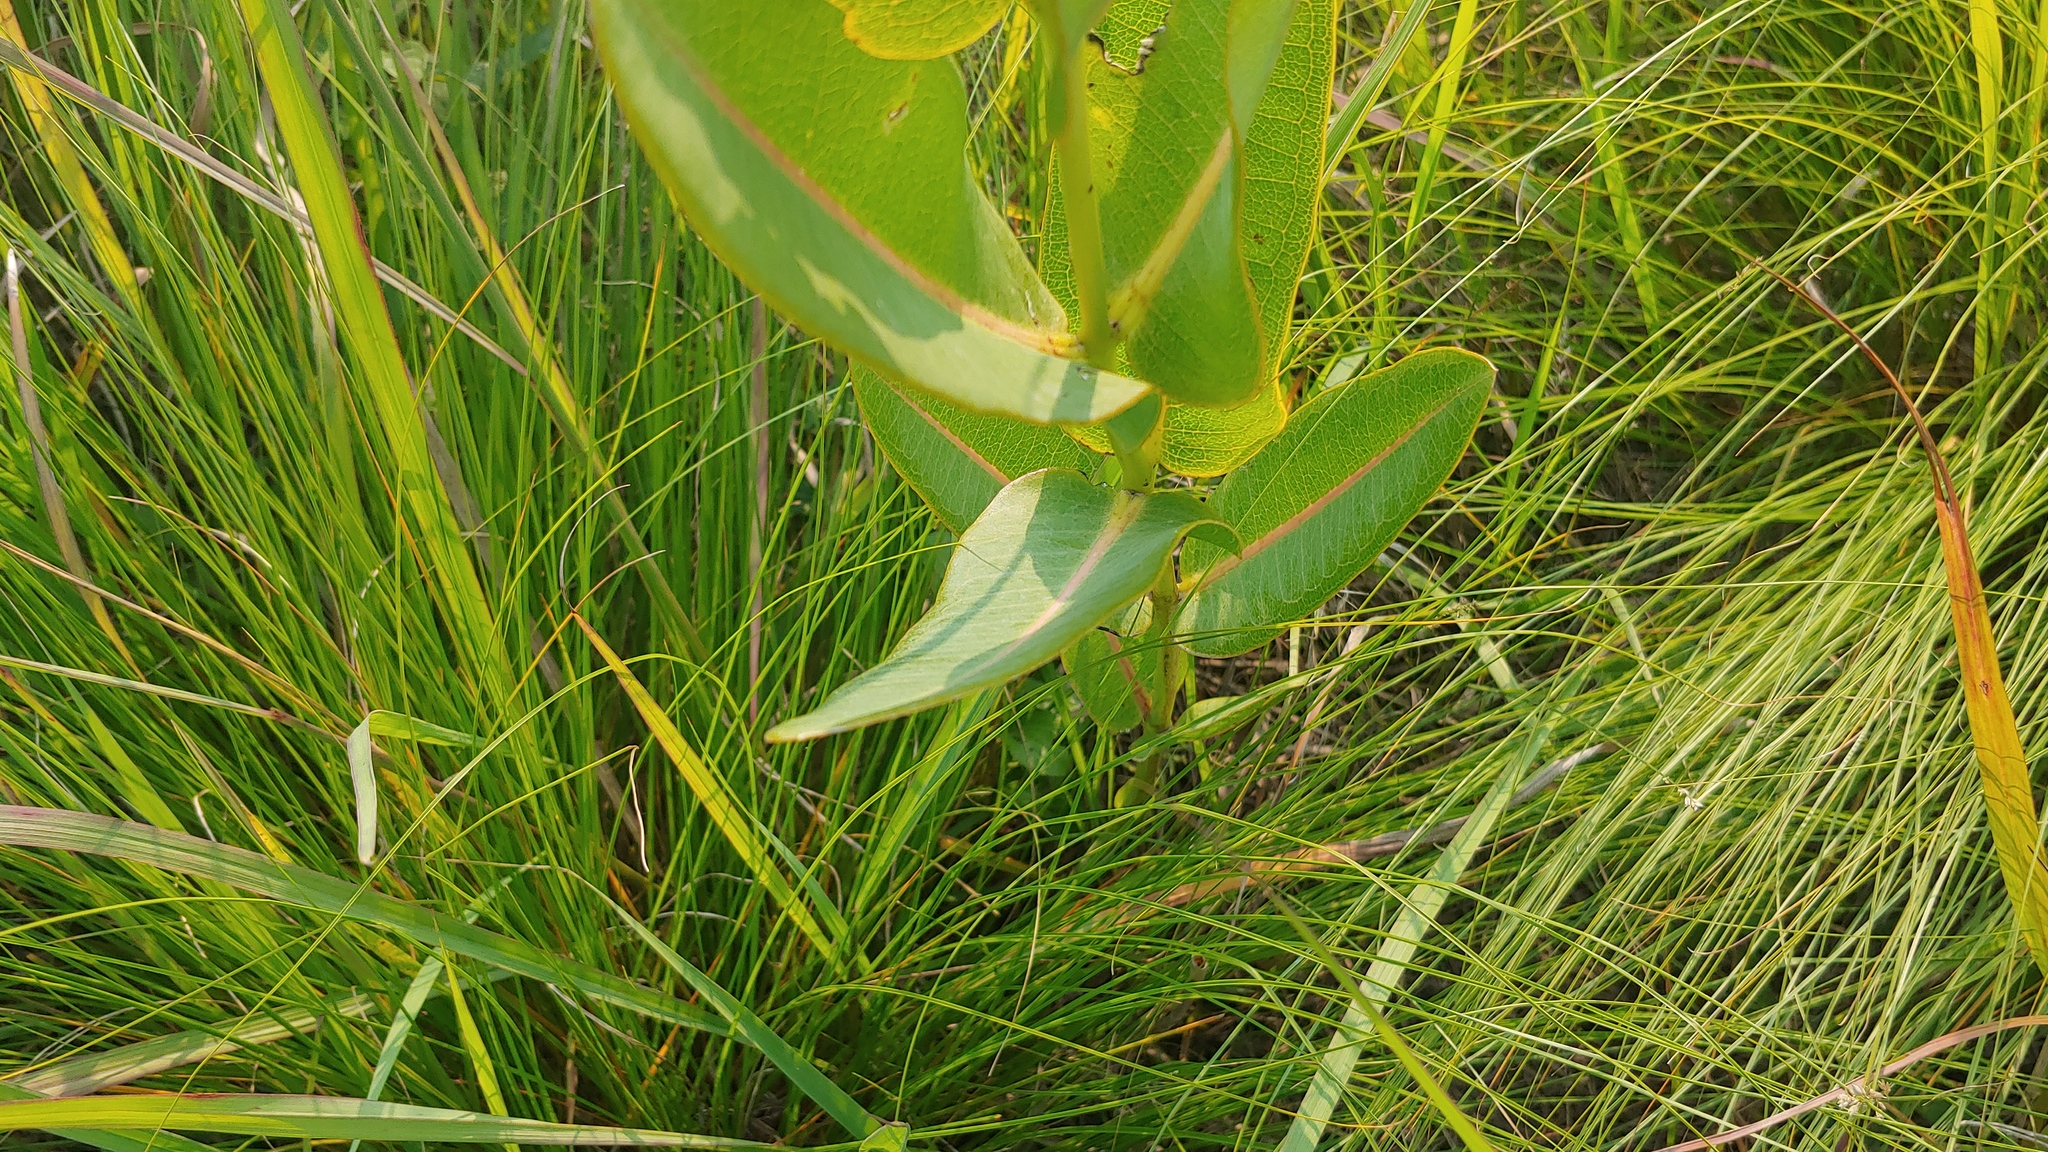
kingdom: Plantae
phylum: Tracheophyta
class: Magnoliopsida
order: Gentianales
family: Apocynaceae
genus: Asclepias
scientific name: Asclepias sullivantii
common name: Prairie milkweed
